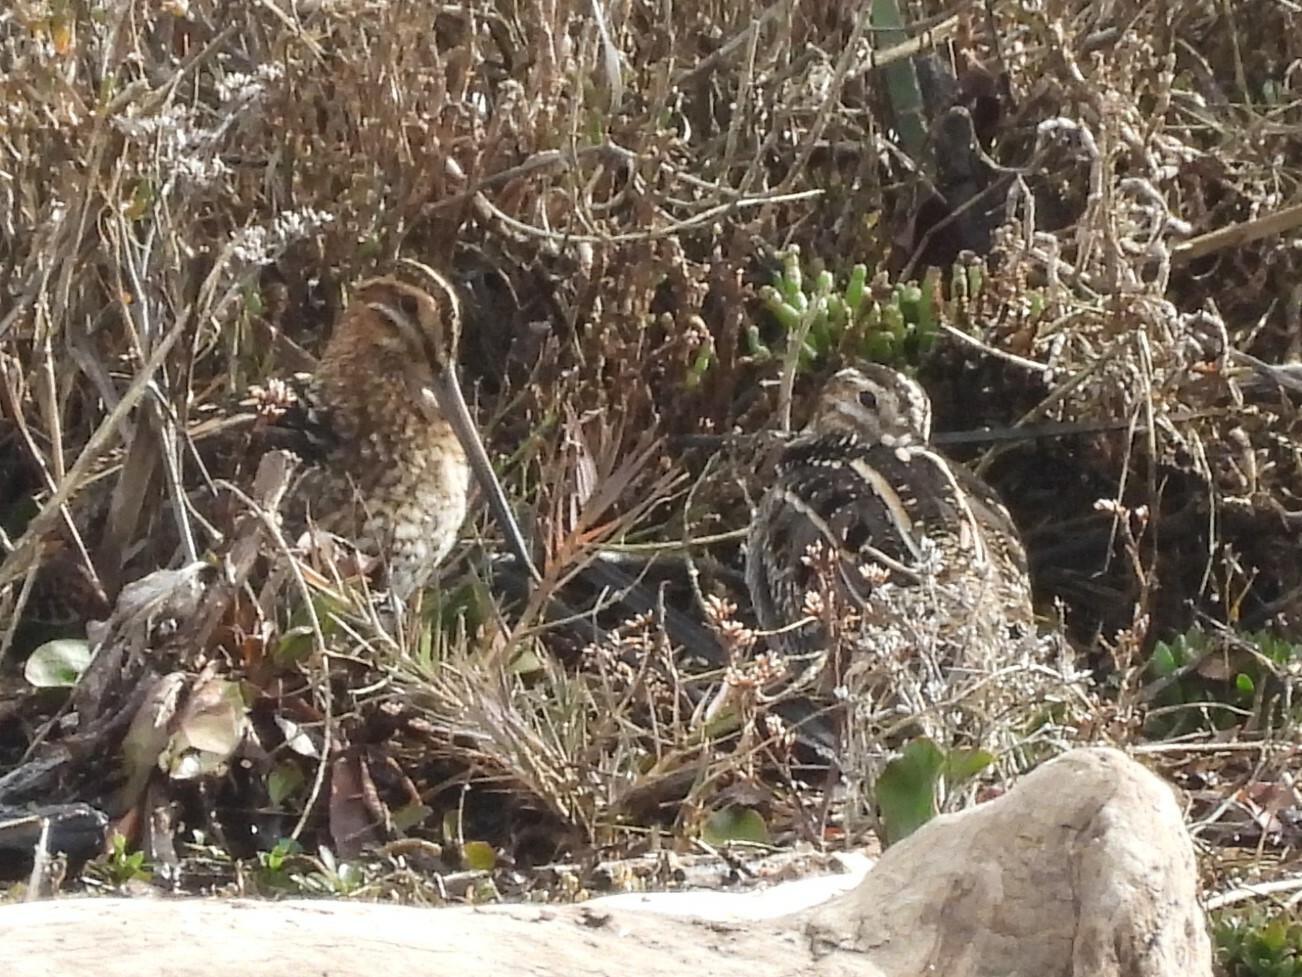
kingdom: Animalia
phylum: Chordata
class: Aves
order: Charadriiformes
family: Scolopacidae
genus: Gallinago
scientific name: Gallinago delicata
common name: Wilson's snipe
